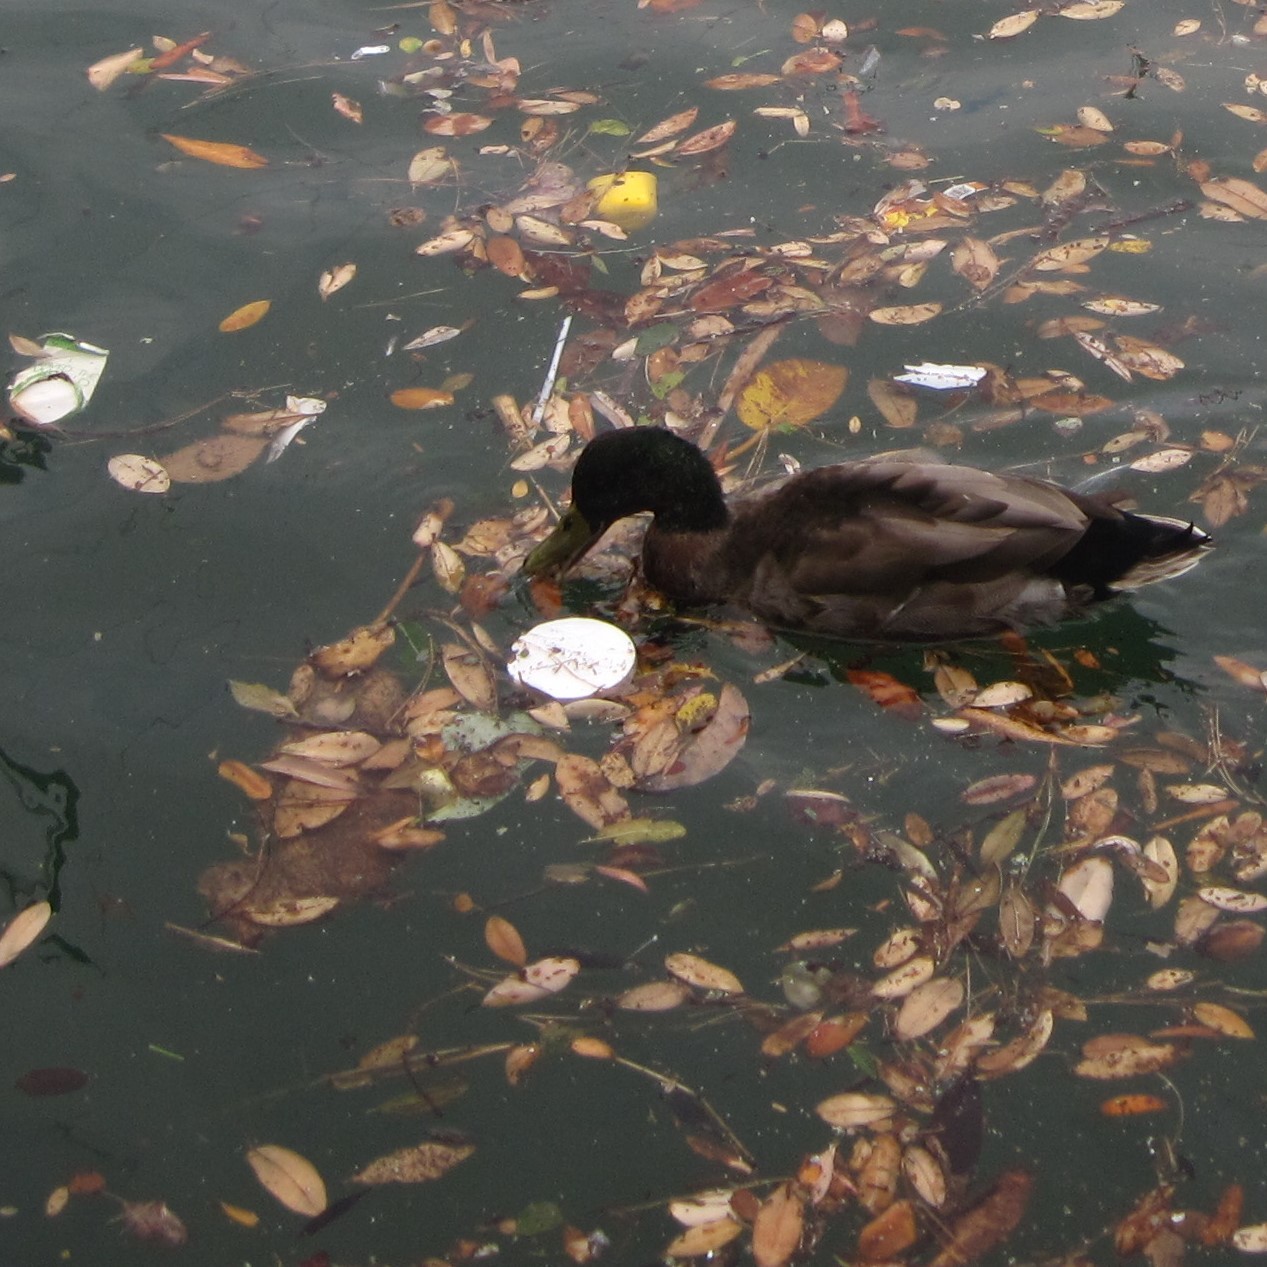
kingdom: Animalia
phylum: Chordata
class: Aves
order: Anseriformes
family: Anatidae
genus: Anas
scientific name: Anas
